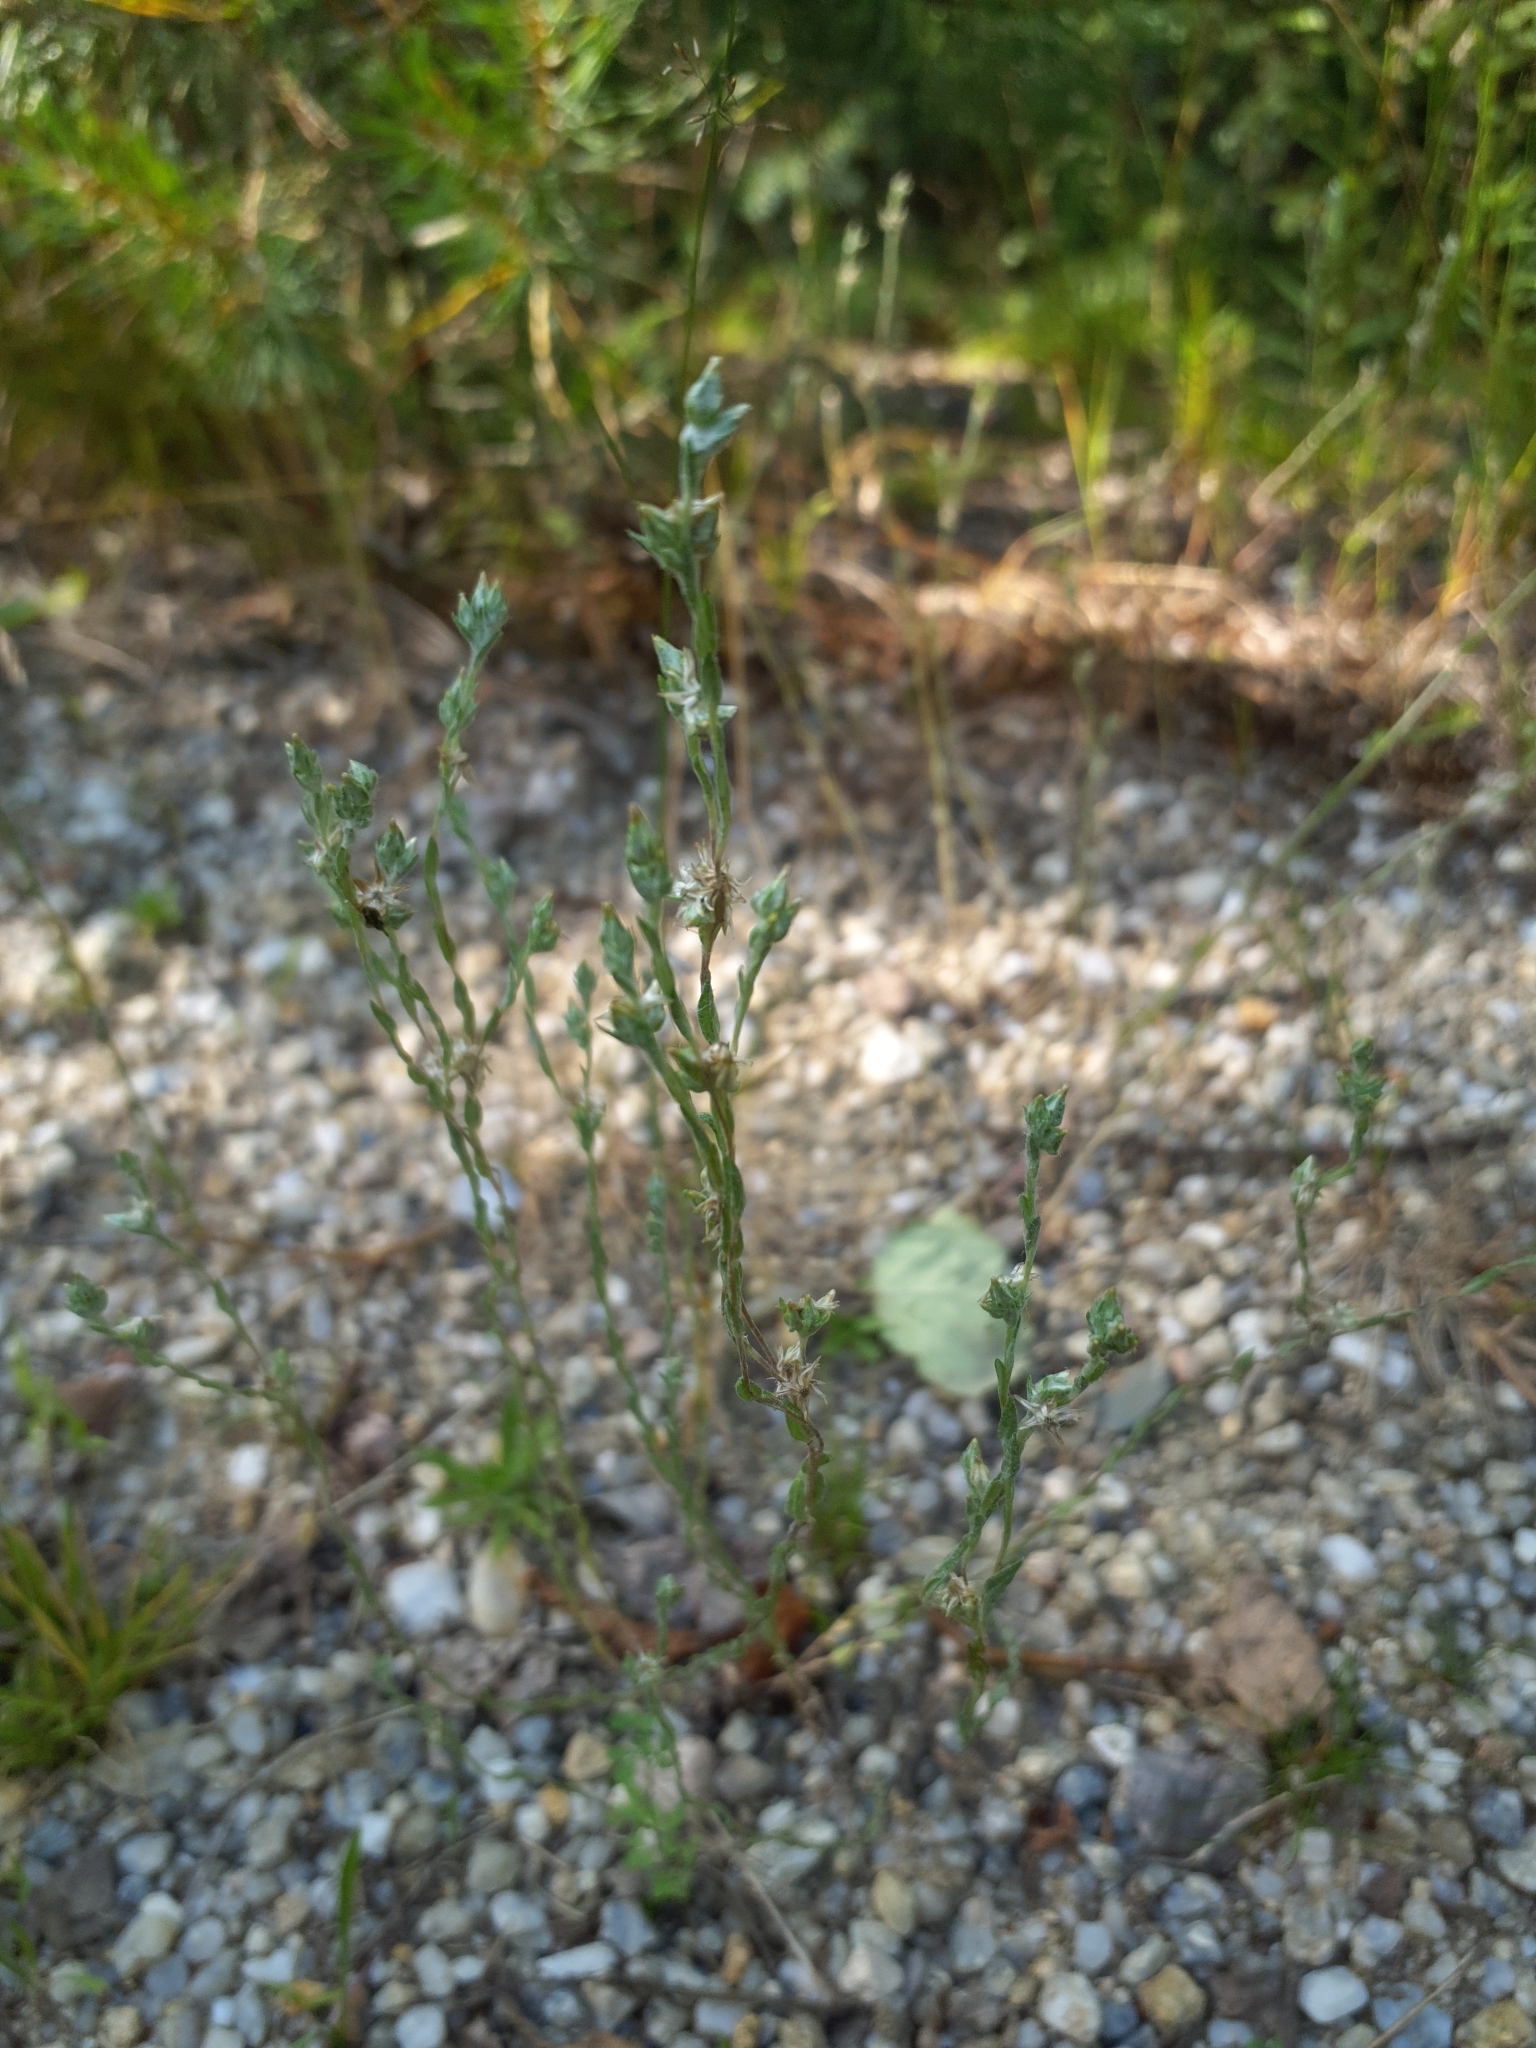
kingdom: Plantae
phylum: Tracheophyta
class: Magnoliopsida
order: Asterales
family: Asteraceae
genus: Logfia
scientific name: Logfia minima
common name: Little cottonrose
